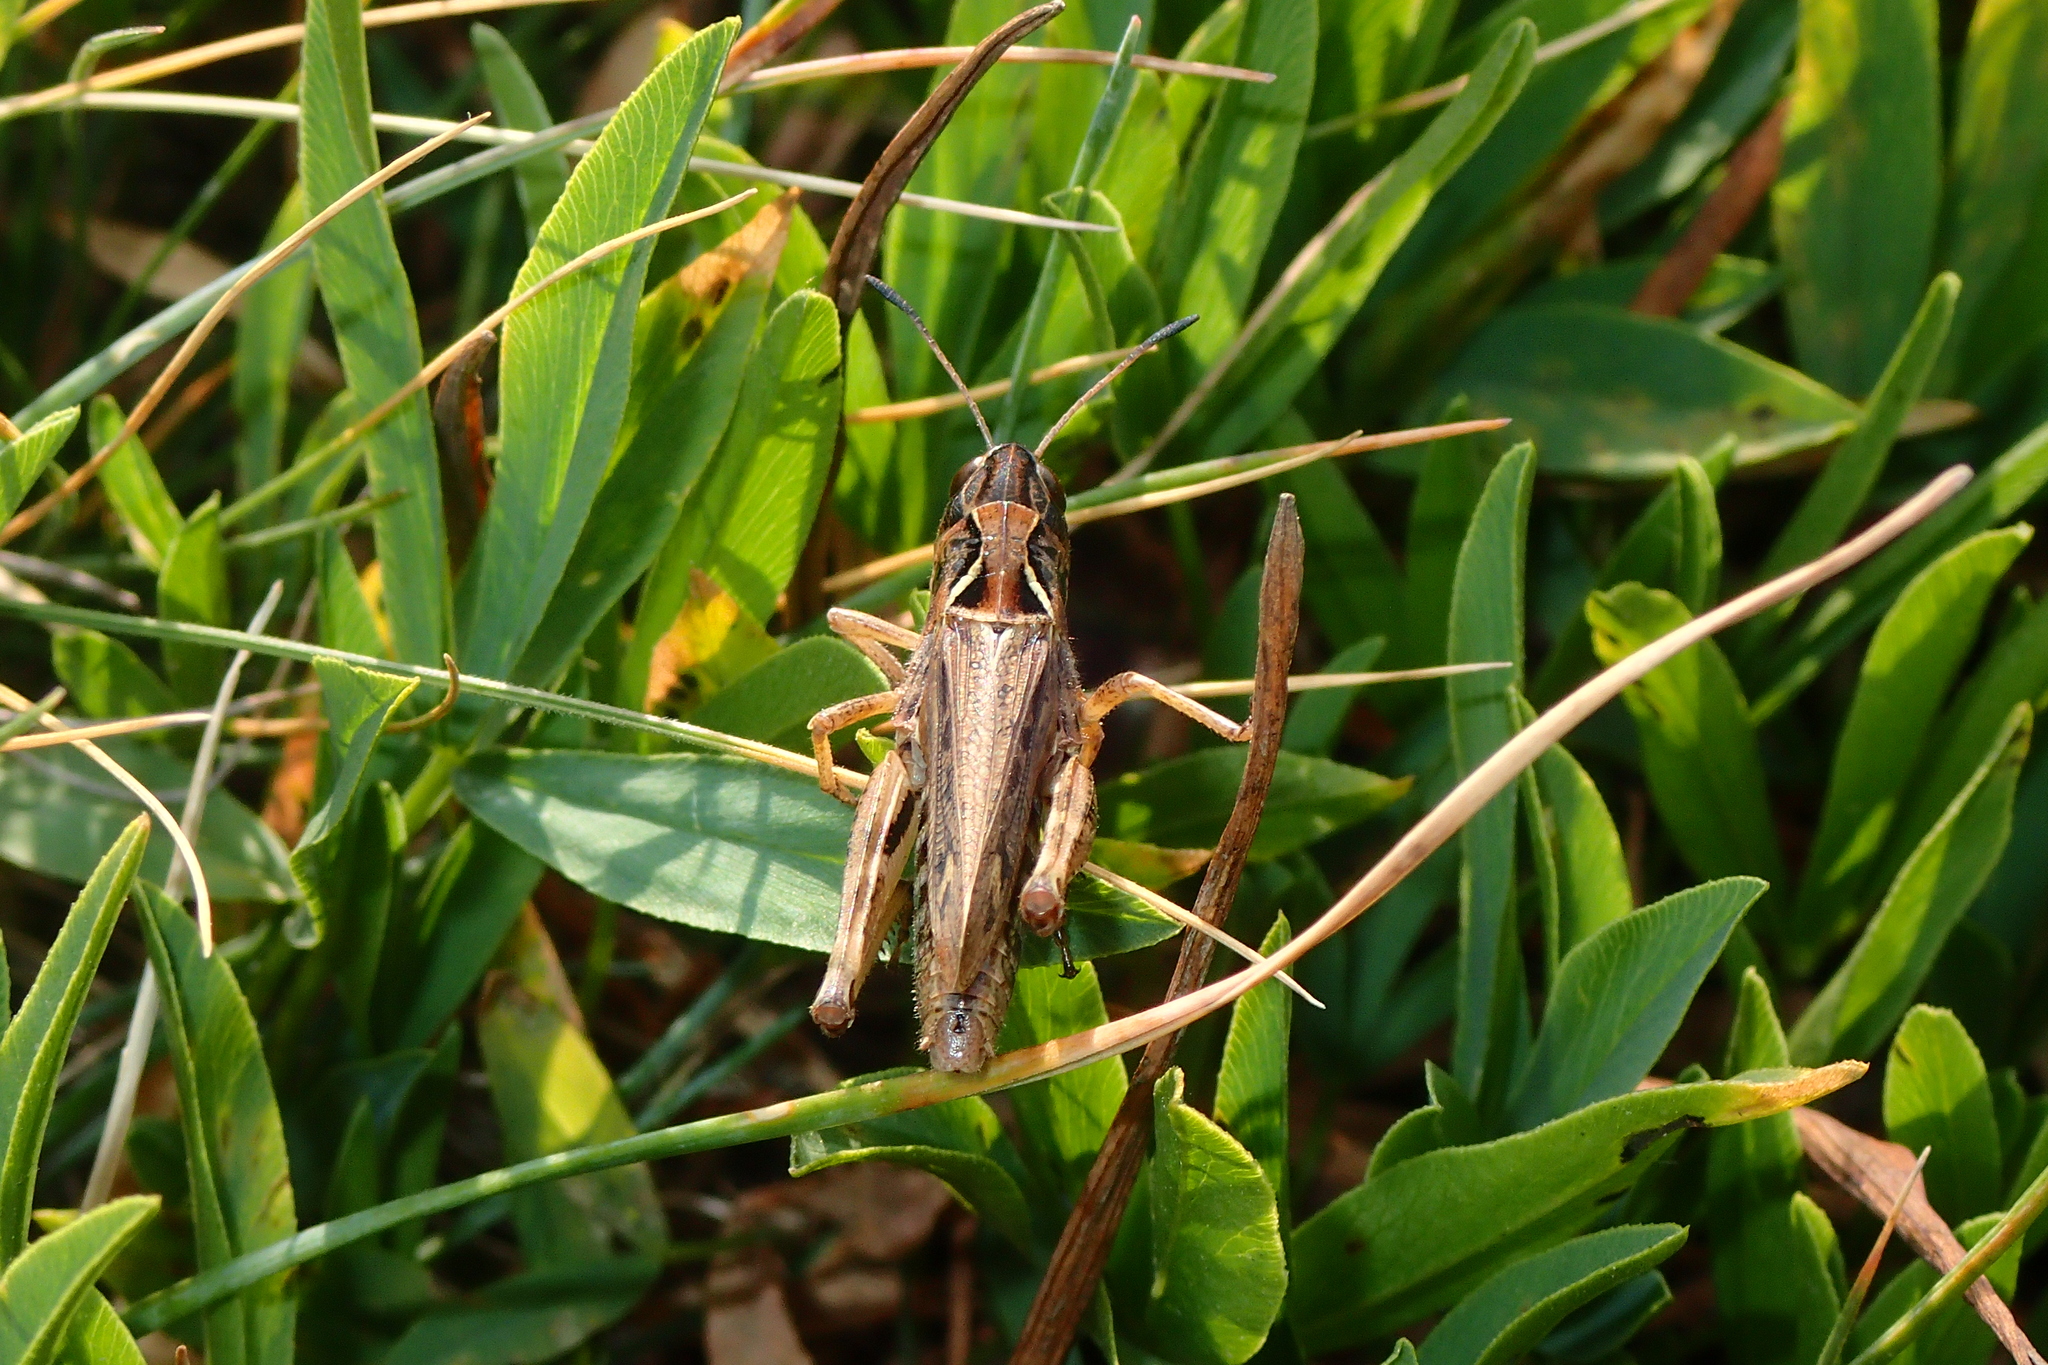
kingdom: Animalia
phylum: Arthropoda
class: Insecta
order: Orthoptera
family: Acrididae
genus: Gomphocerus
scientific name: Gomphocerus sibiricus
